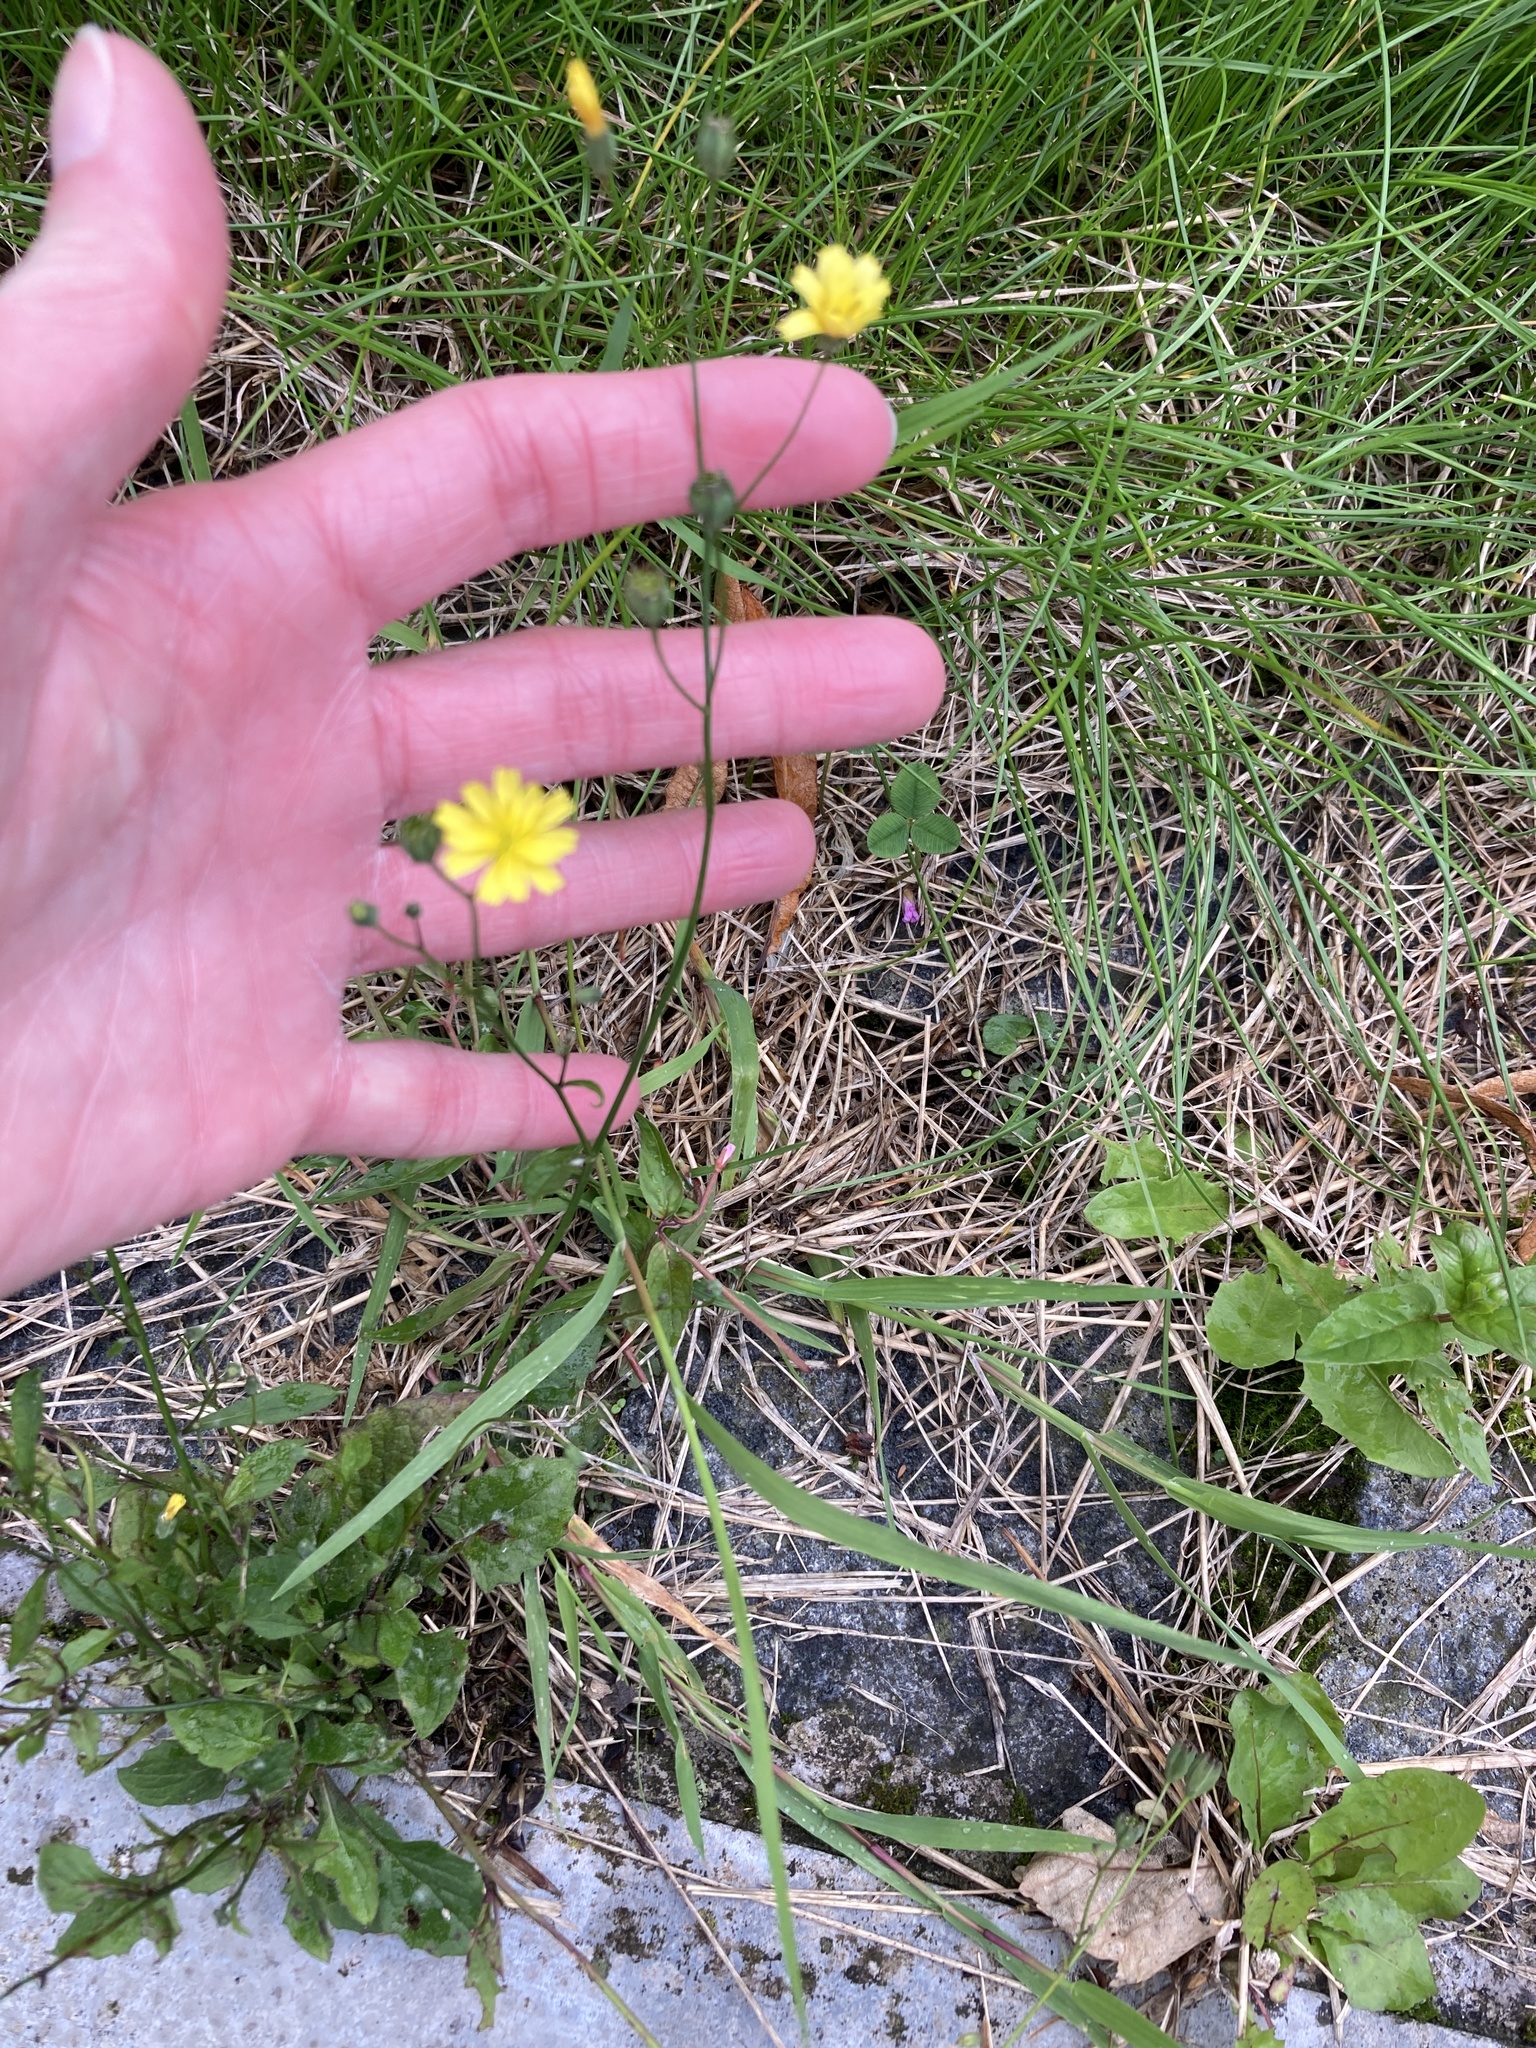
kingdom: Plantae
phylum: Tracheophyta
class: Magnoliopsida
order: Asterales
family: Asteraceae
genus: Lapsana
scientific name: Lapsana communis
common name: Nipplewort
